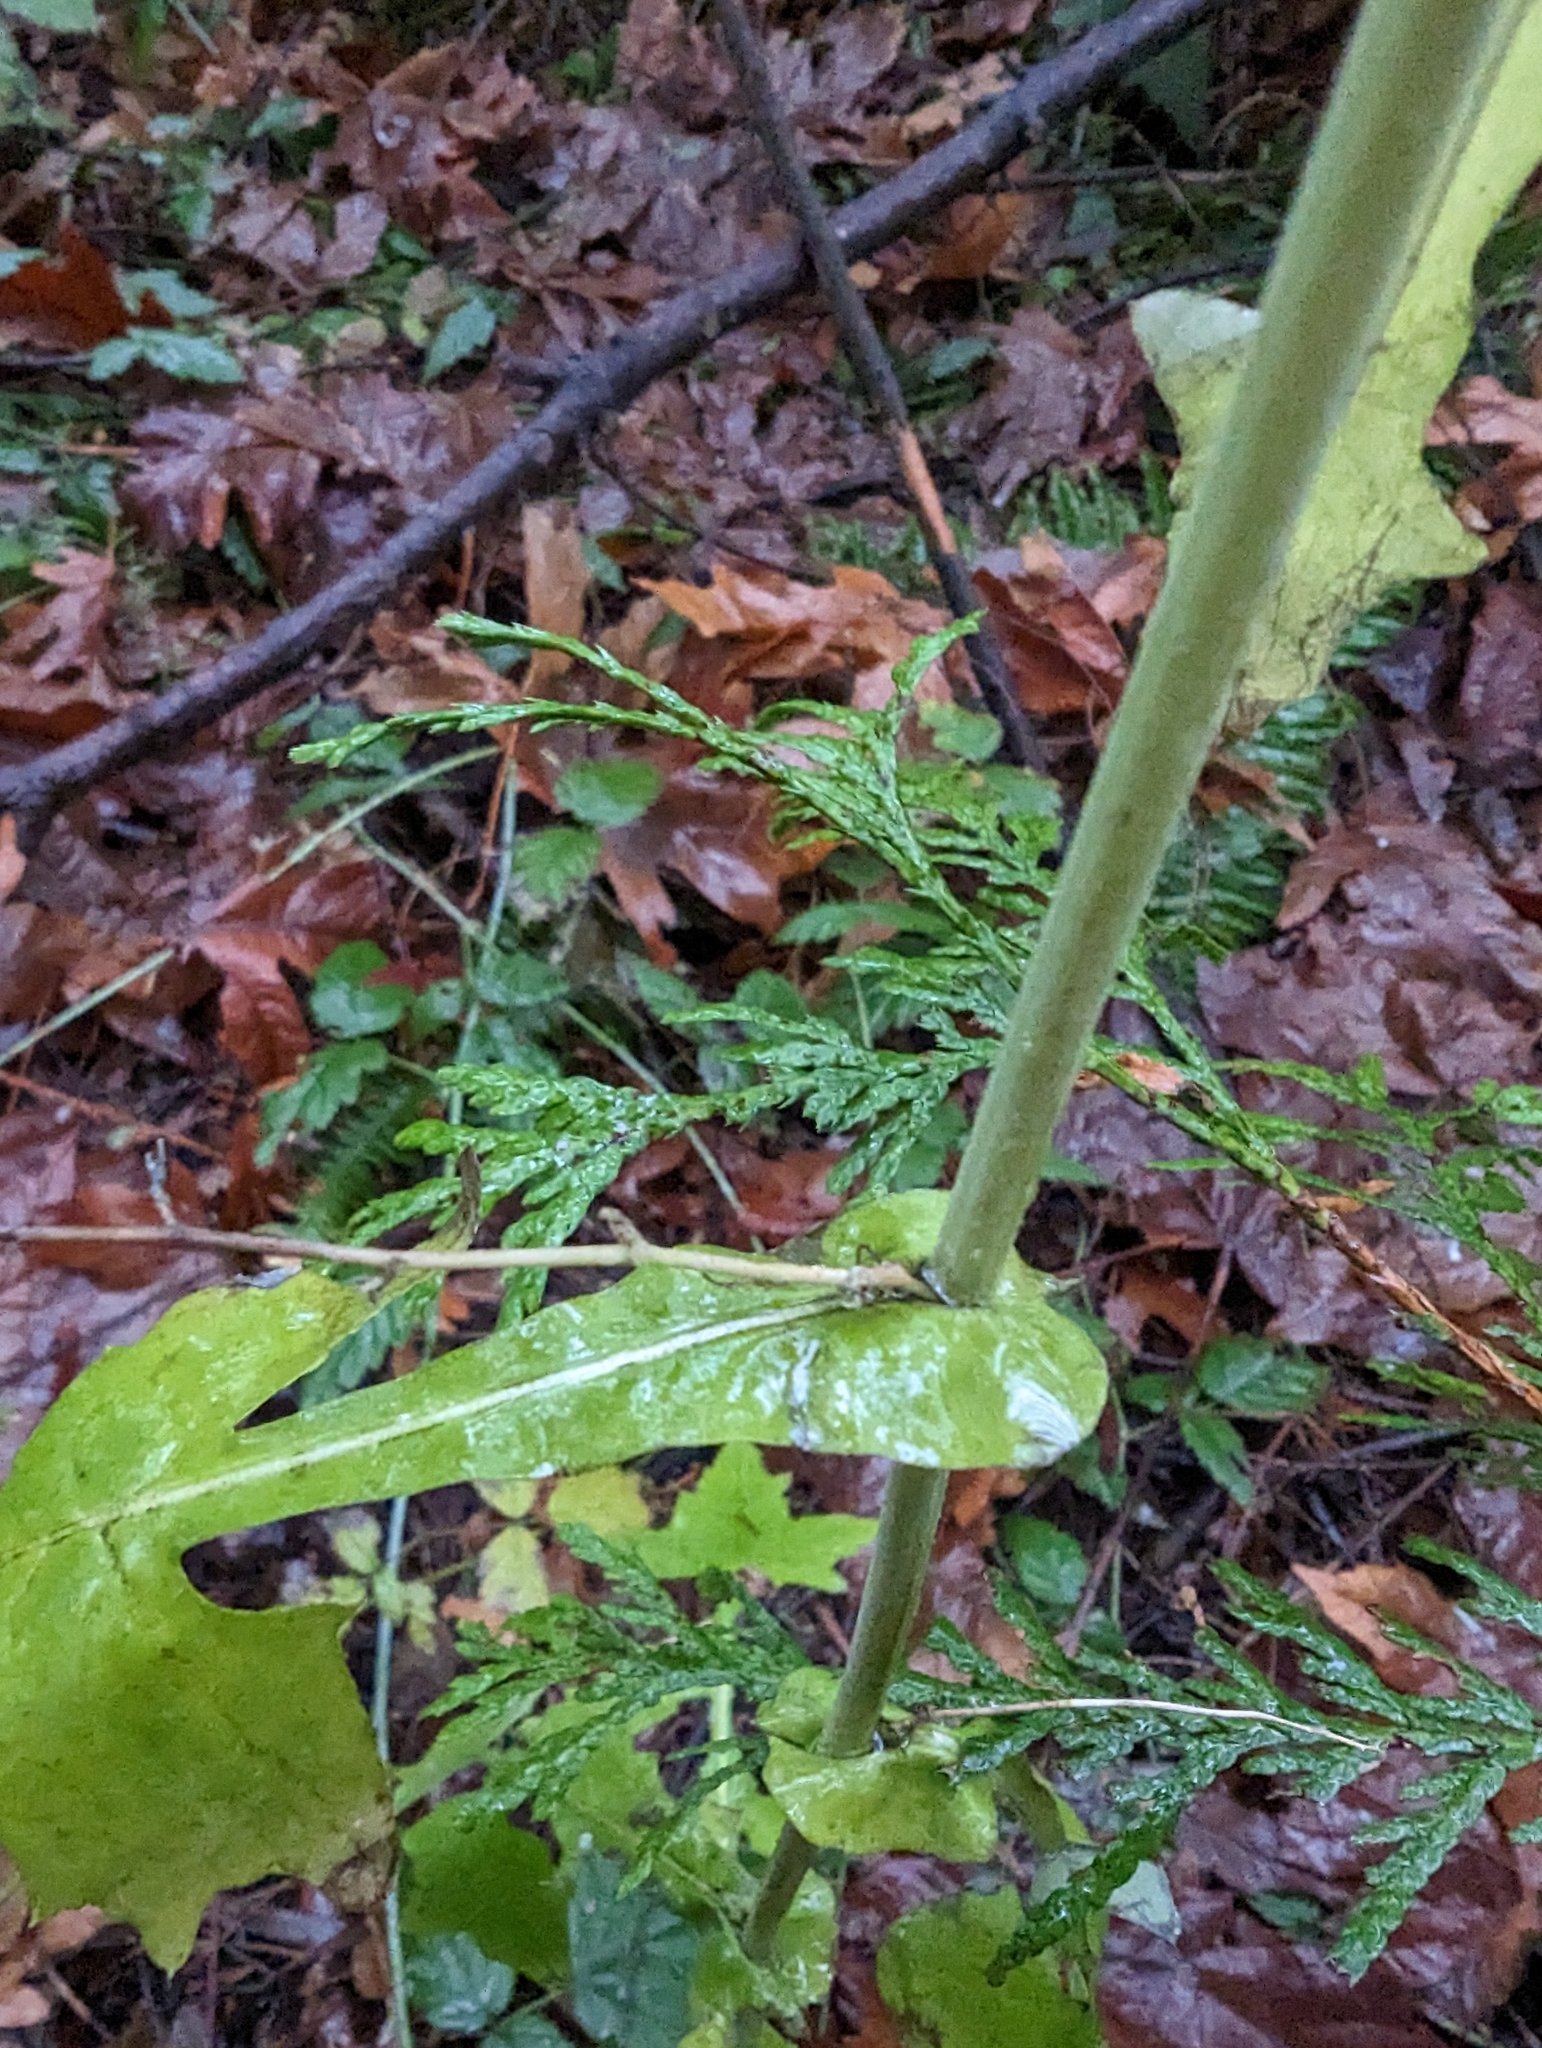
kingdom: Plantae
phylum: Tracheophyta
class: Magnoliopsida
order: Asterales
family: Asteraceae
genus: Mycelis
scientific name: Mycelis muralis
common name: Wall lettuce
